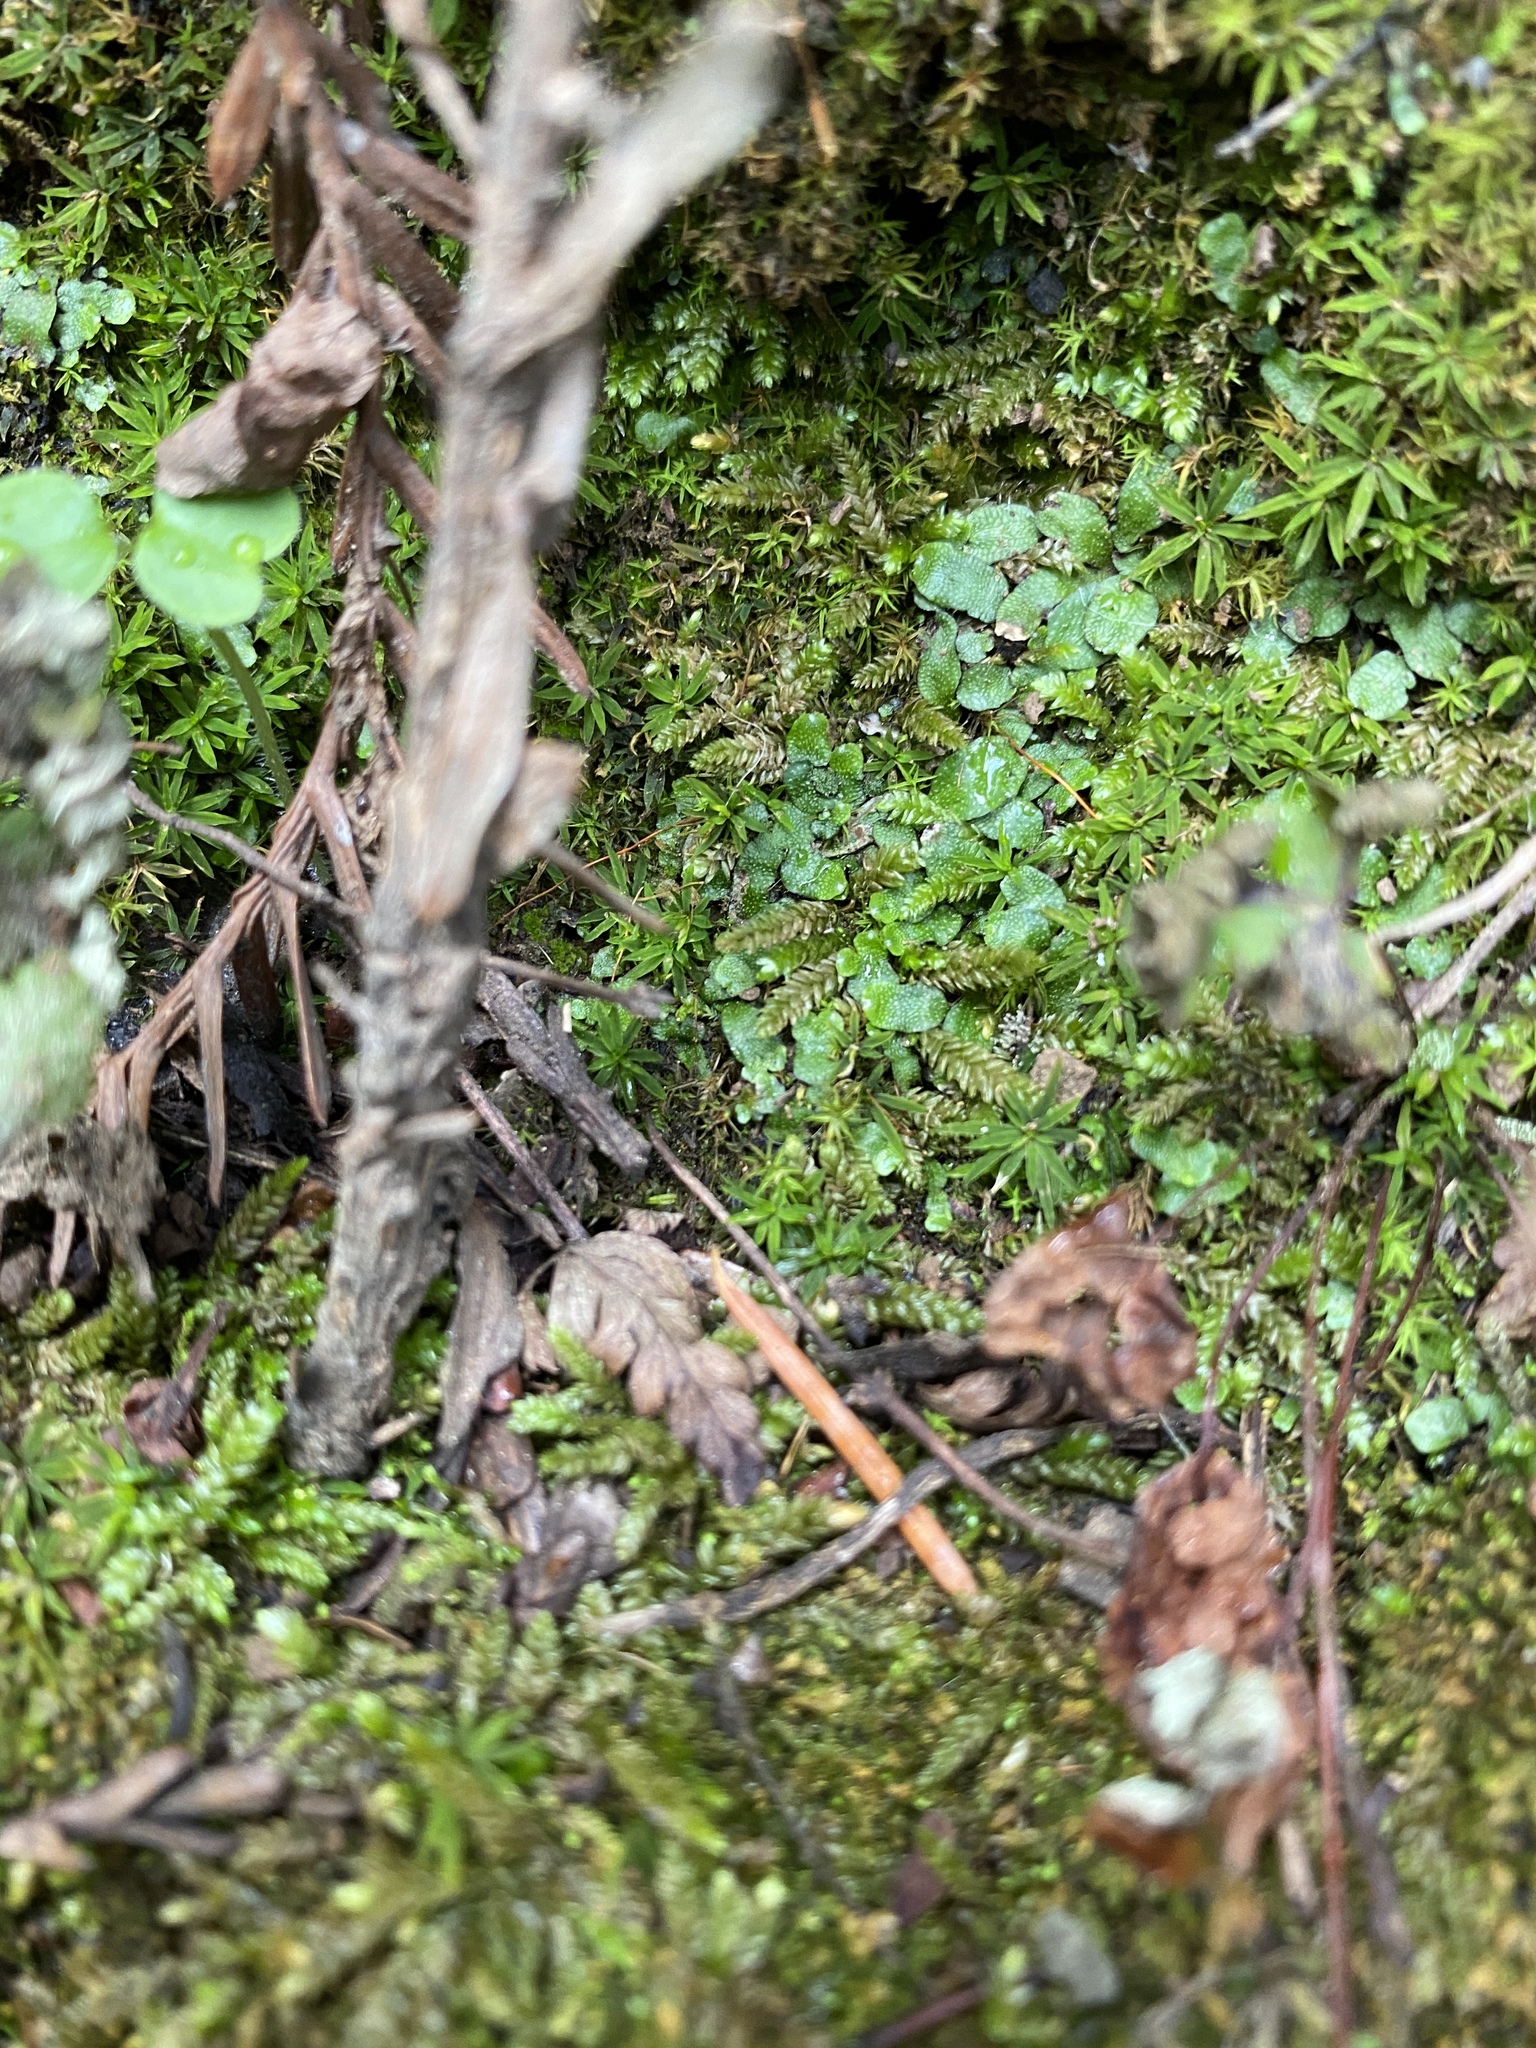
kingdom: Plantae
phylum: Marchantiophyta
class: Marchantiopsida
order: Marchantiales
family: Targioniaceae
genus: Targionia
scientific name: Targionia hypophylla
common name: Orobus-seed liverwort
